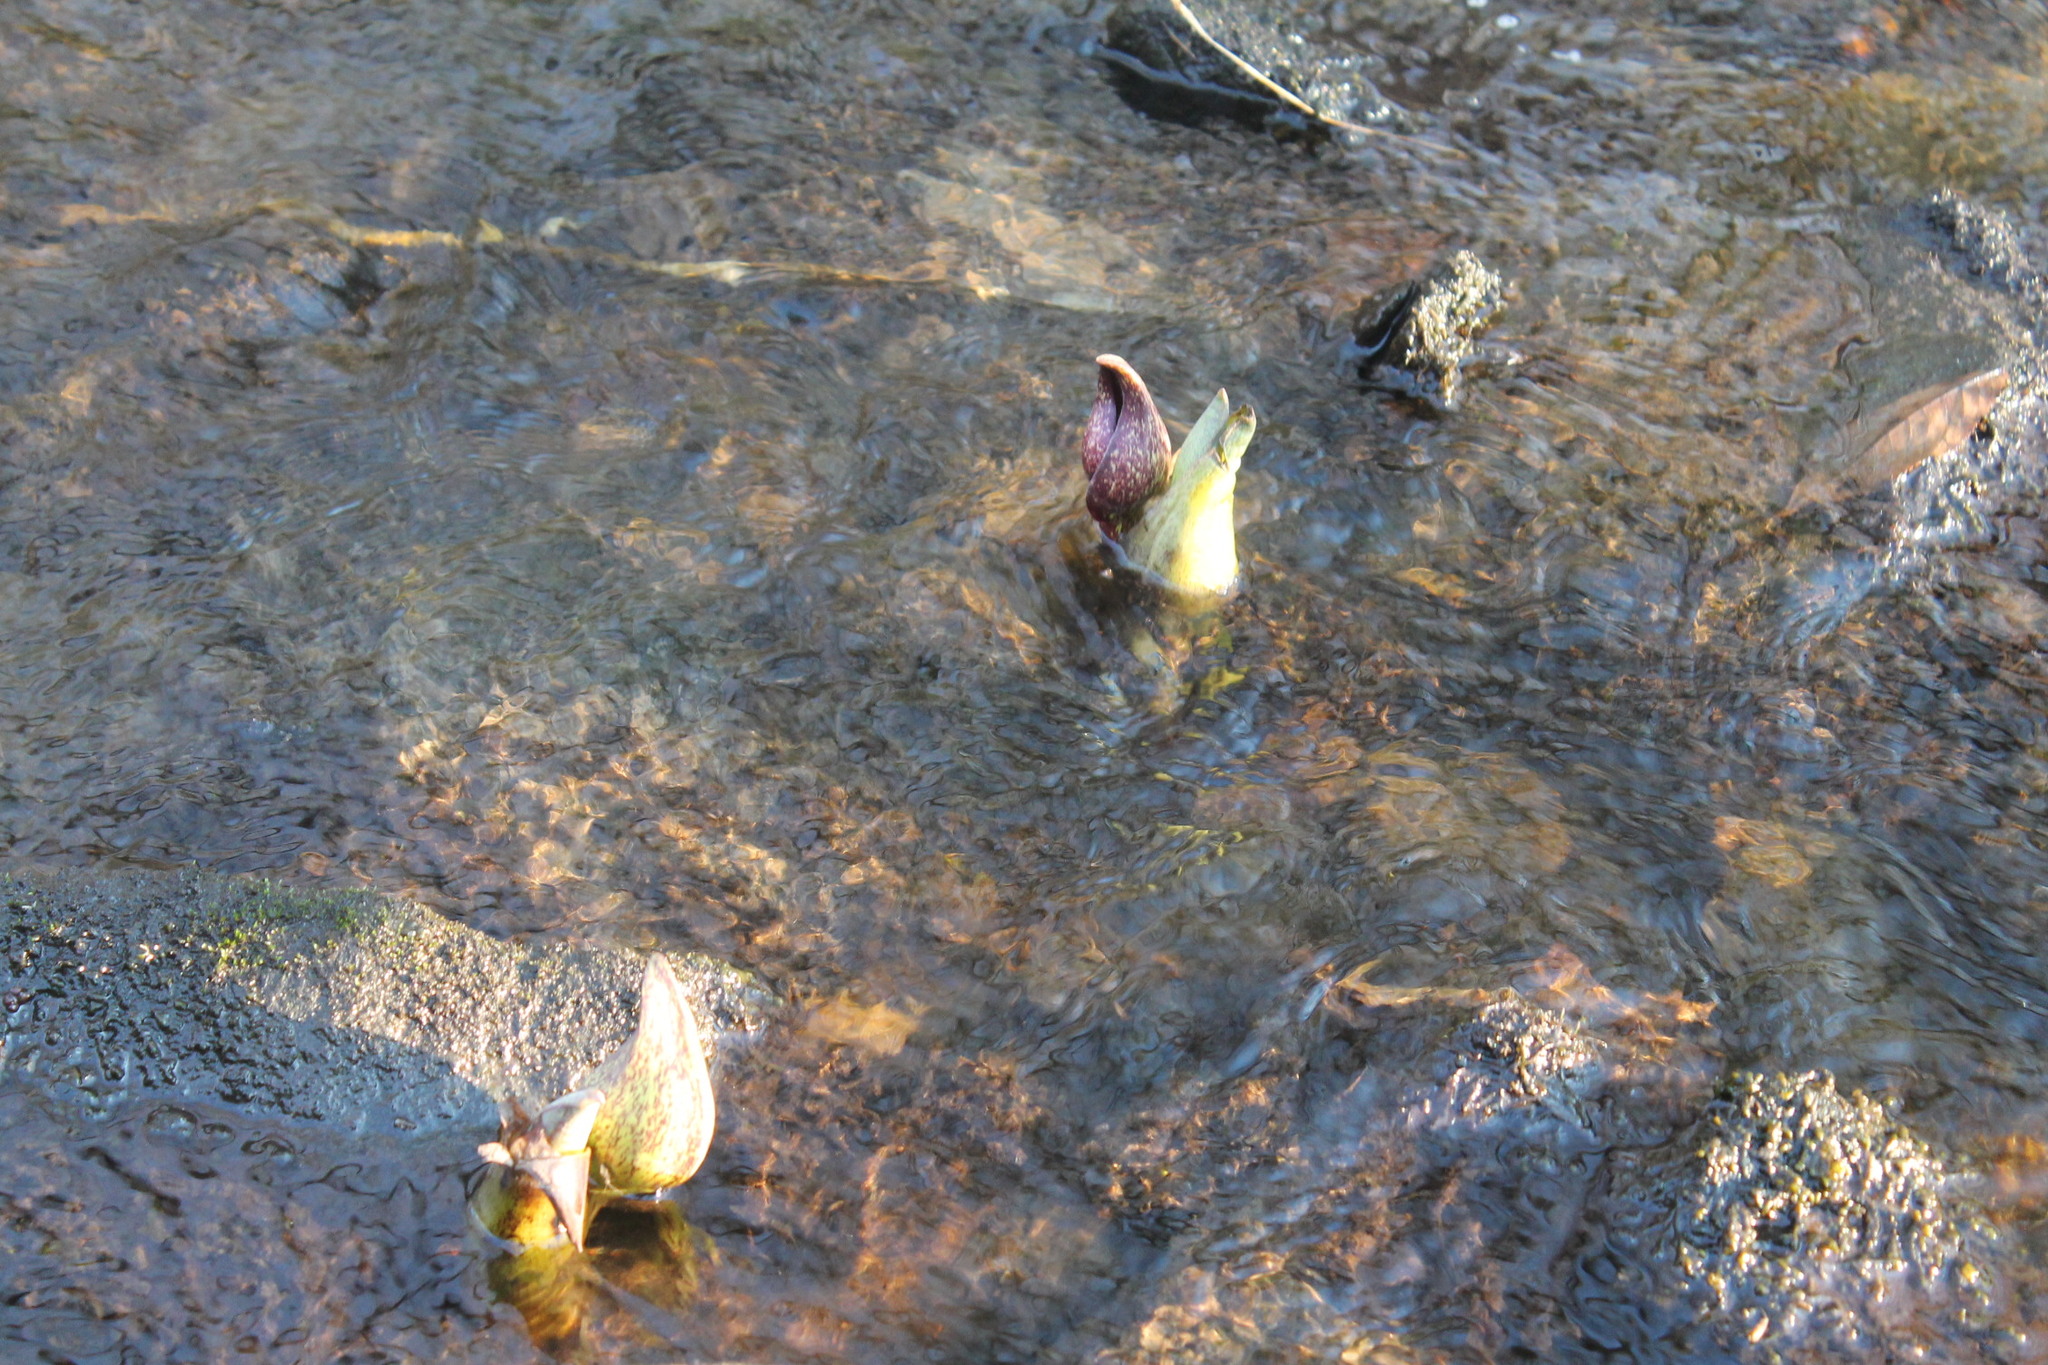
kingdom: Plantae
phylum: Tracheophyta
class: Liliopsida
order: Alismatales
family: Araceae
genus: Symplocarpus
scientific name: Symplocarpus foetidus
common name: Eastern skunk cabbage
